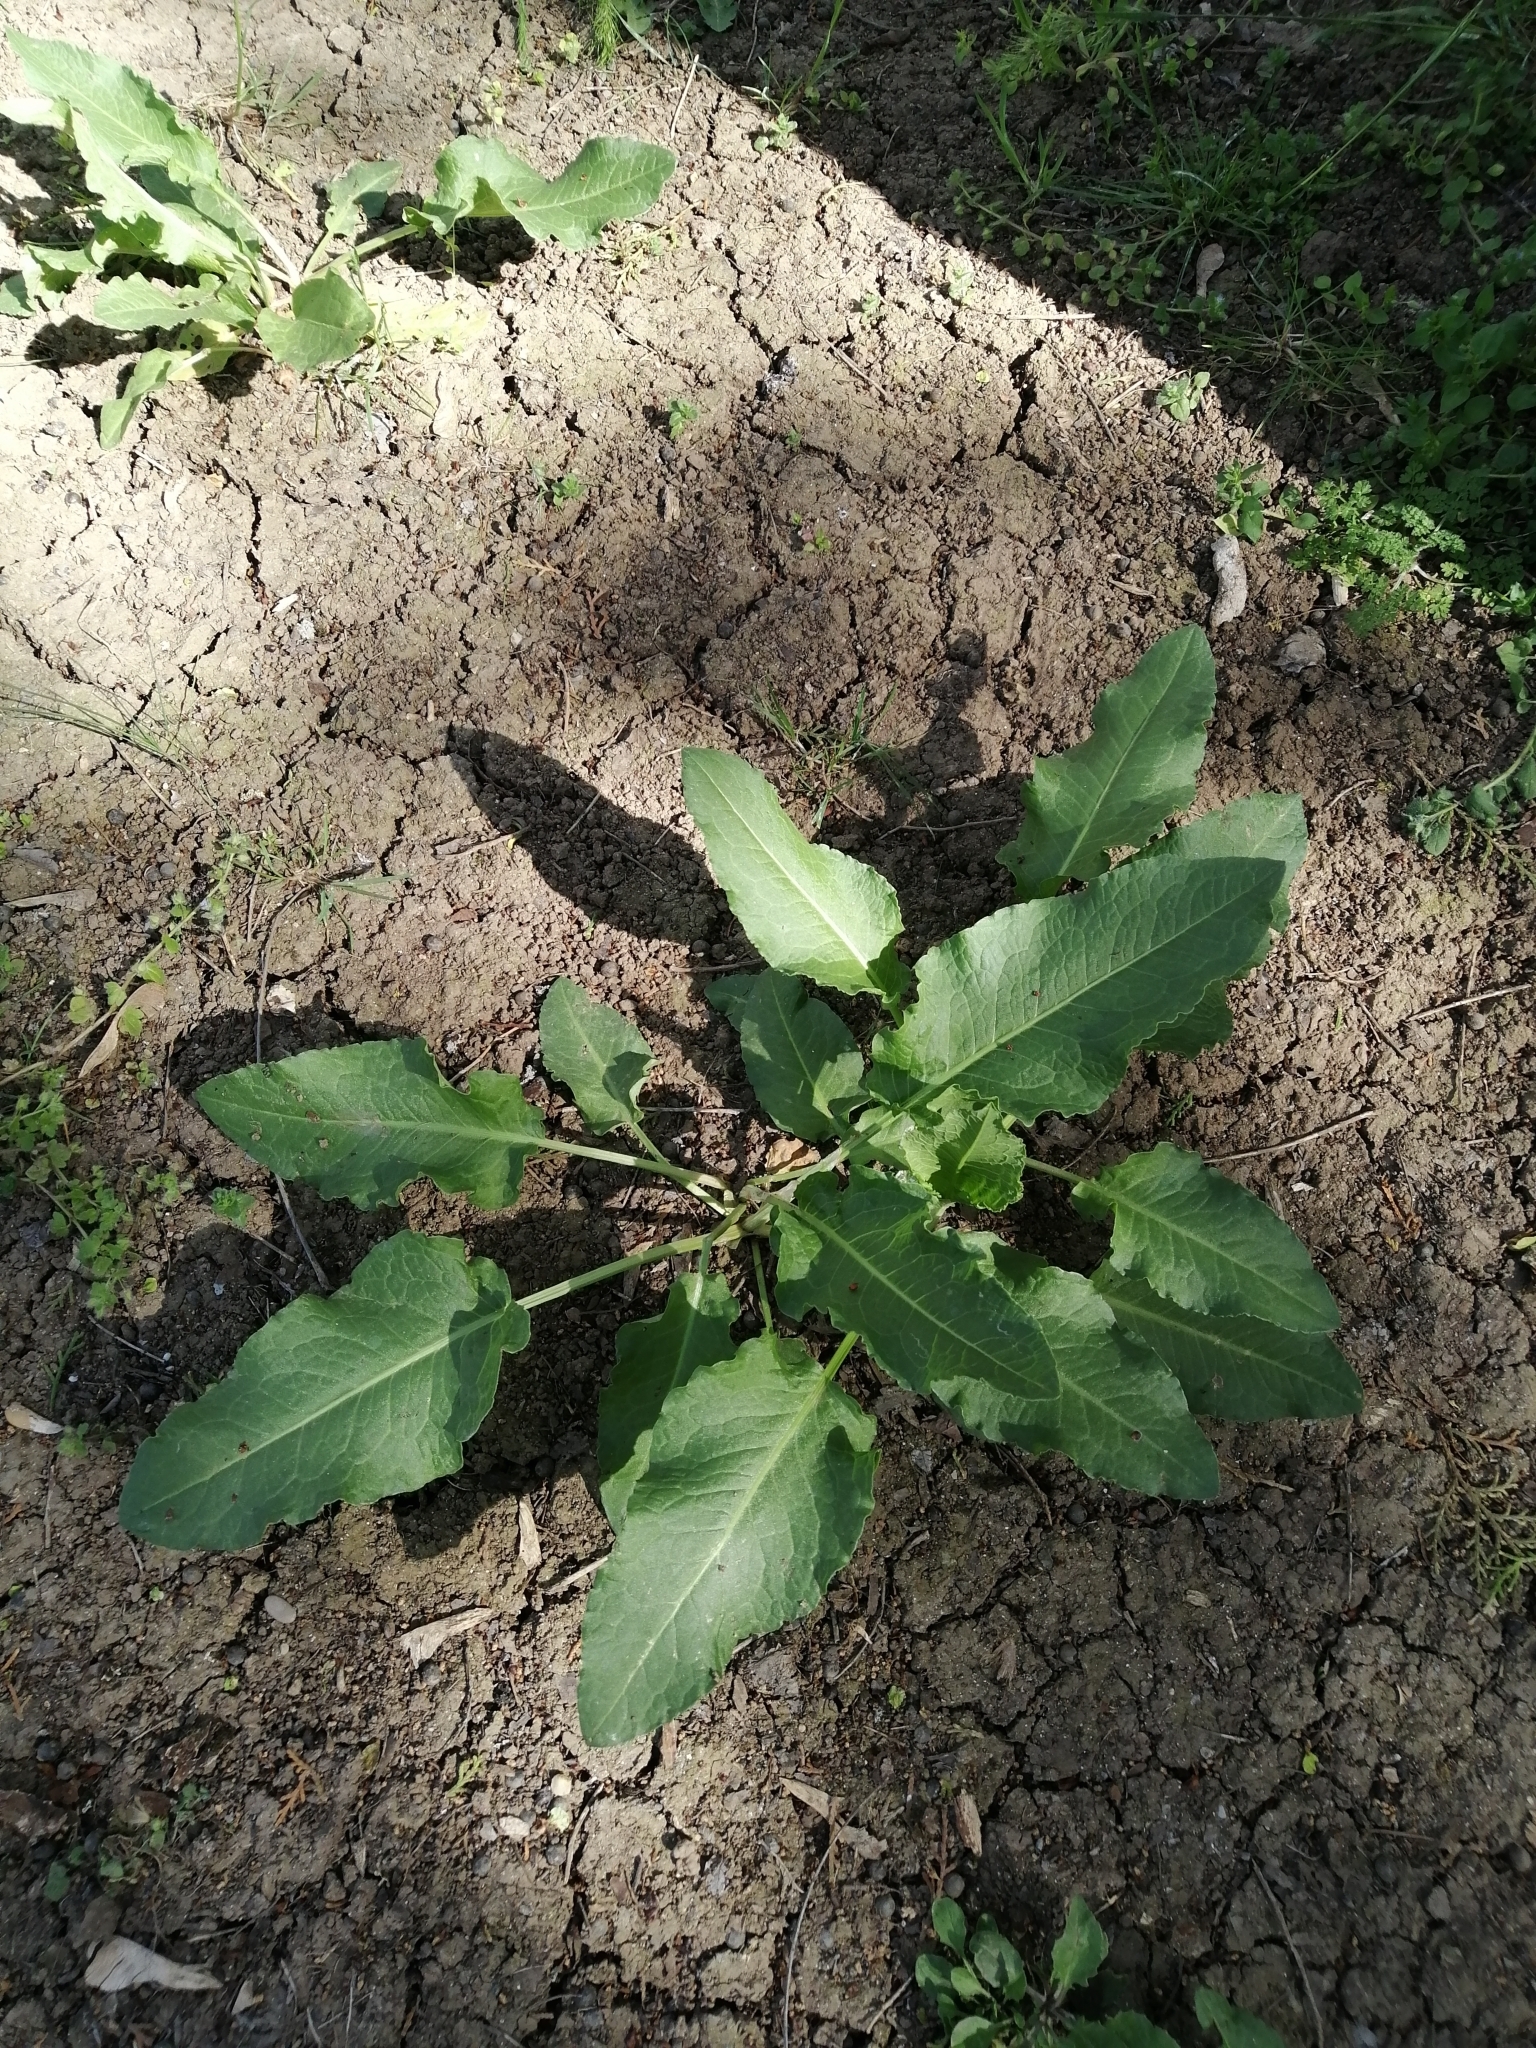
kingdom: Plantae
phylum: Tracheophyta
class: Magnoliopsida
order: Caryophyllales
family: Polygonaceae
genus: Rumex
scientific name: Rumex obtusifolius
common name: Bitter dock
